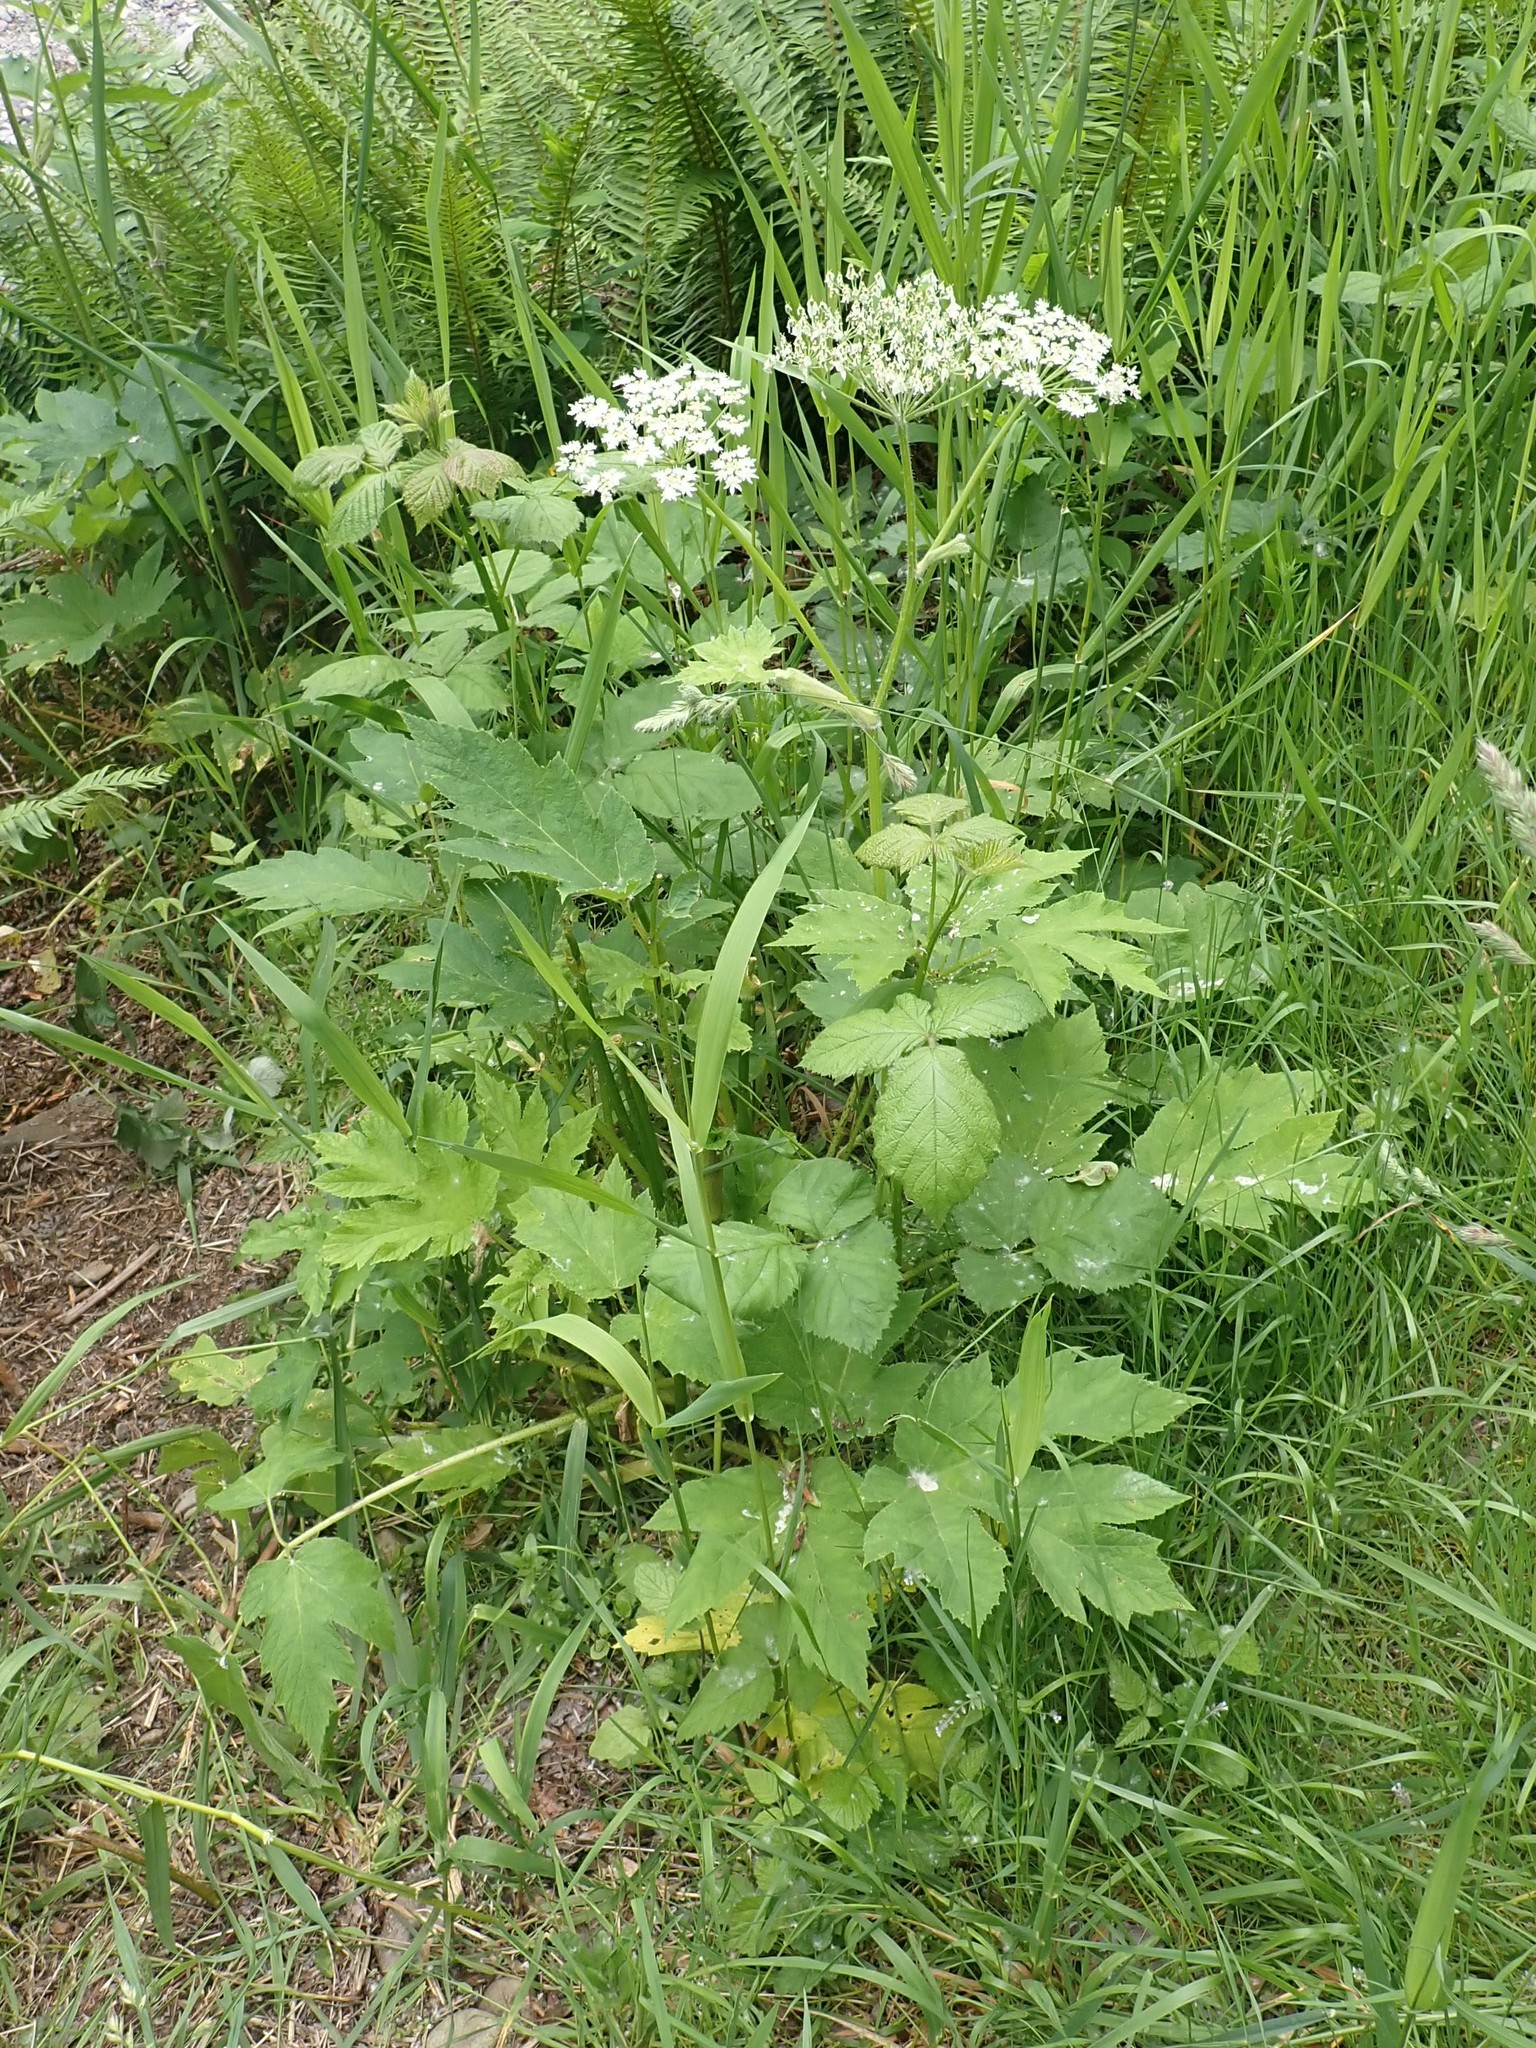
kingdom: Plantae
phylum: Tracheophyta
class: Magnoliopsida
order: Apiales
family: Apiaceae
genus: Heracleum
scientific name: Heracleum maximum
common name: American cow parsnip
